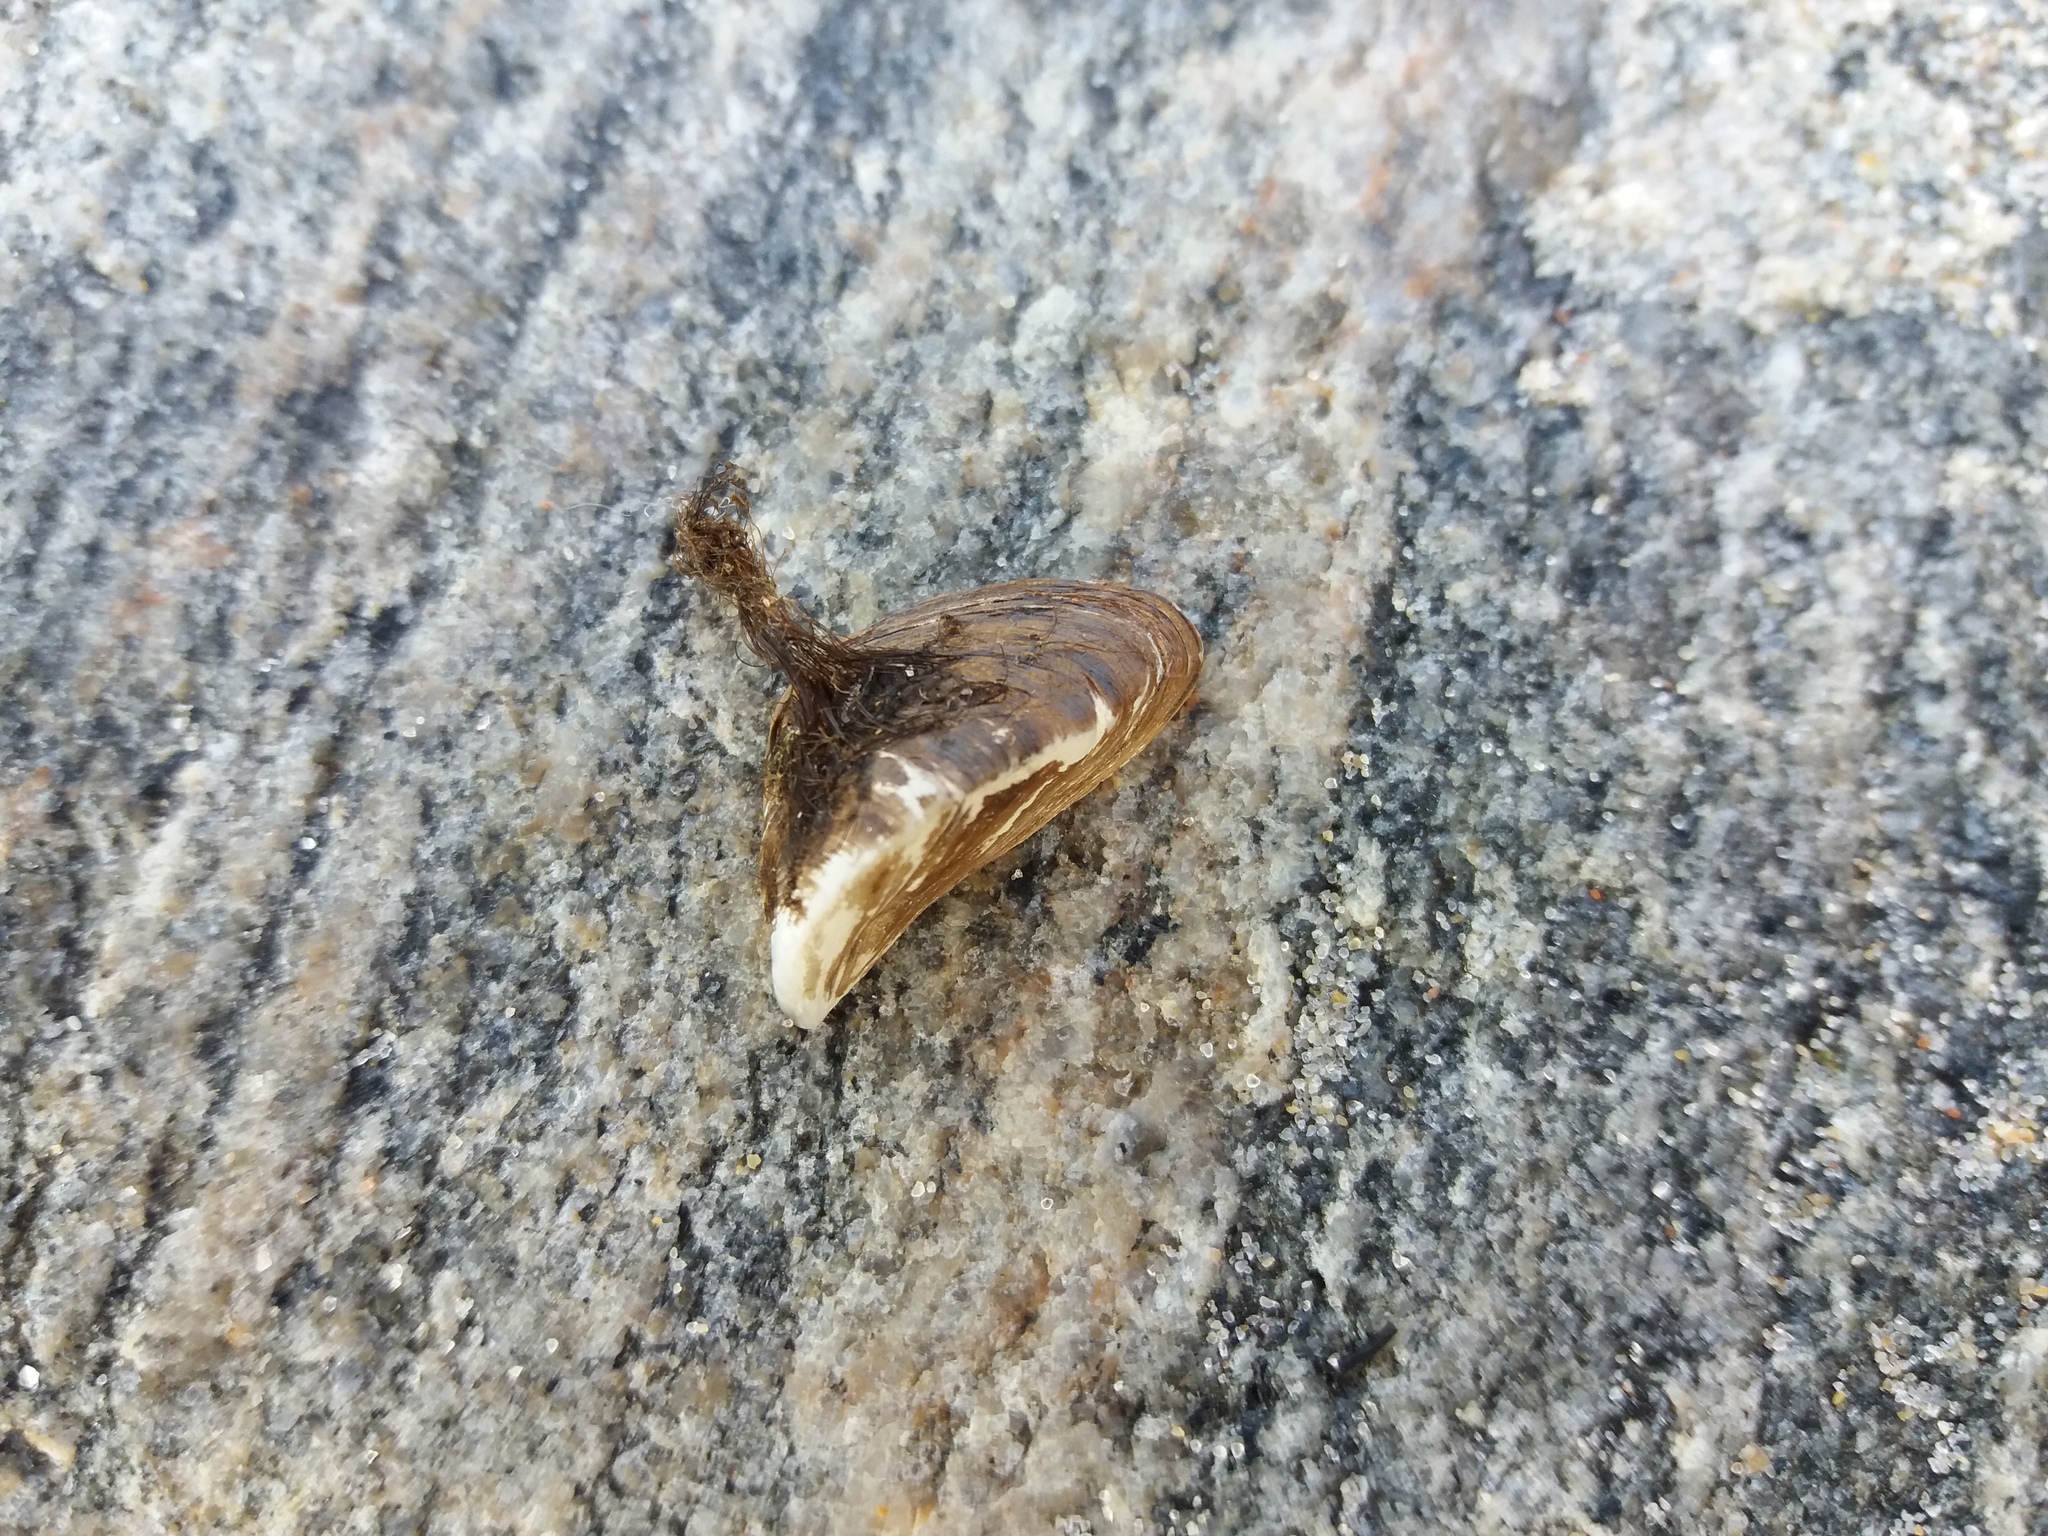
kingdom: Animalia
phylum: Mollusca
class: Bivalvia
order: Myida
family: Dreissenidae
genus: Dreissena
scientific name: Dreissena polymorpha
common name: Zebra mussel
